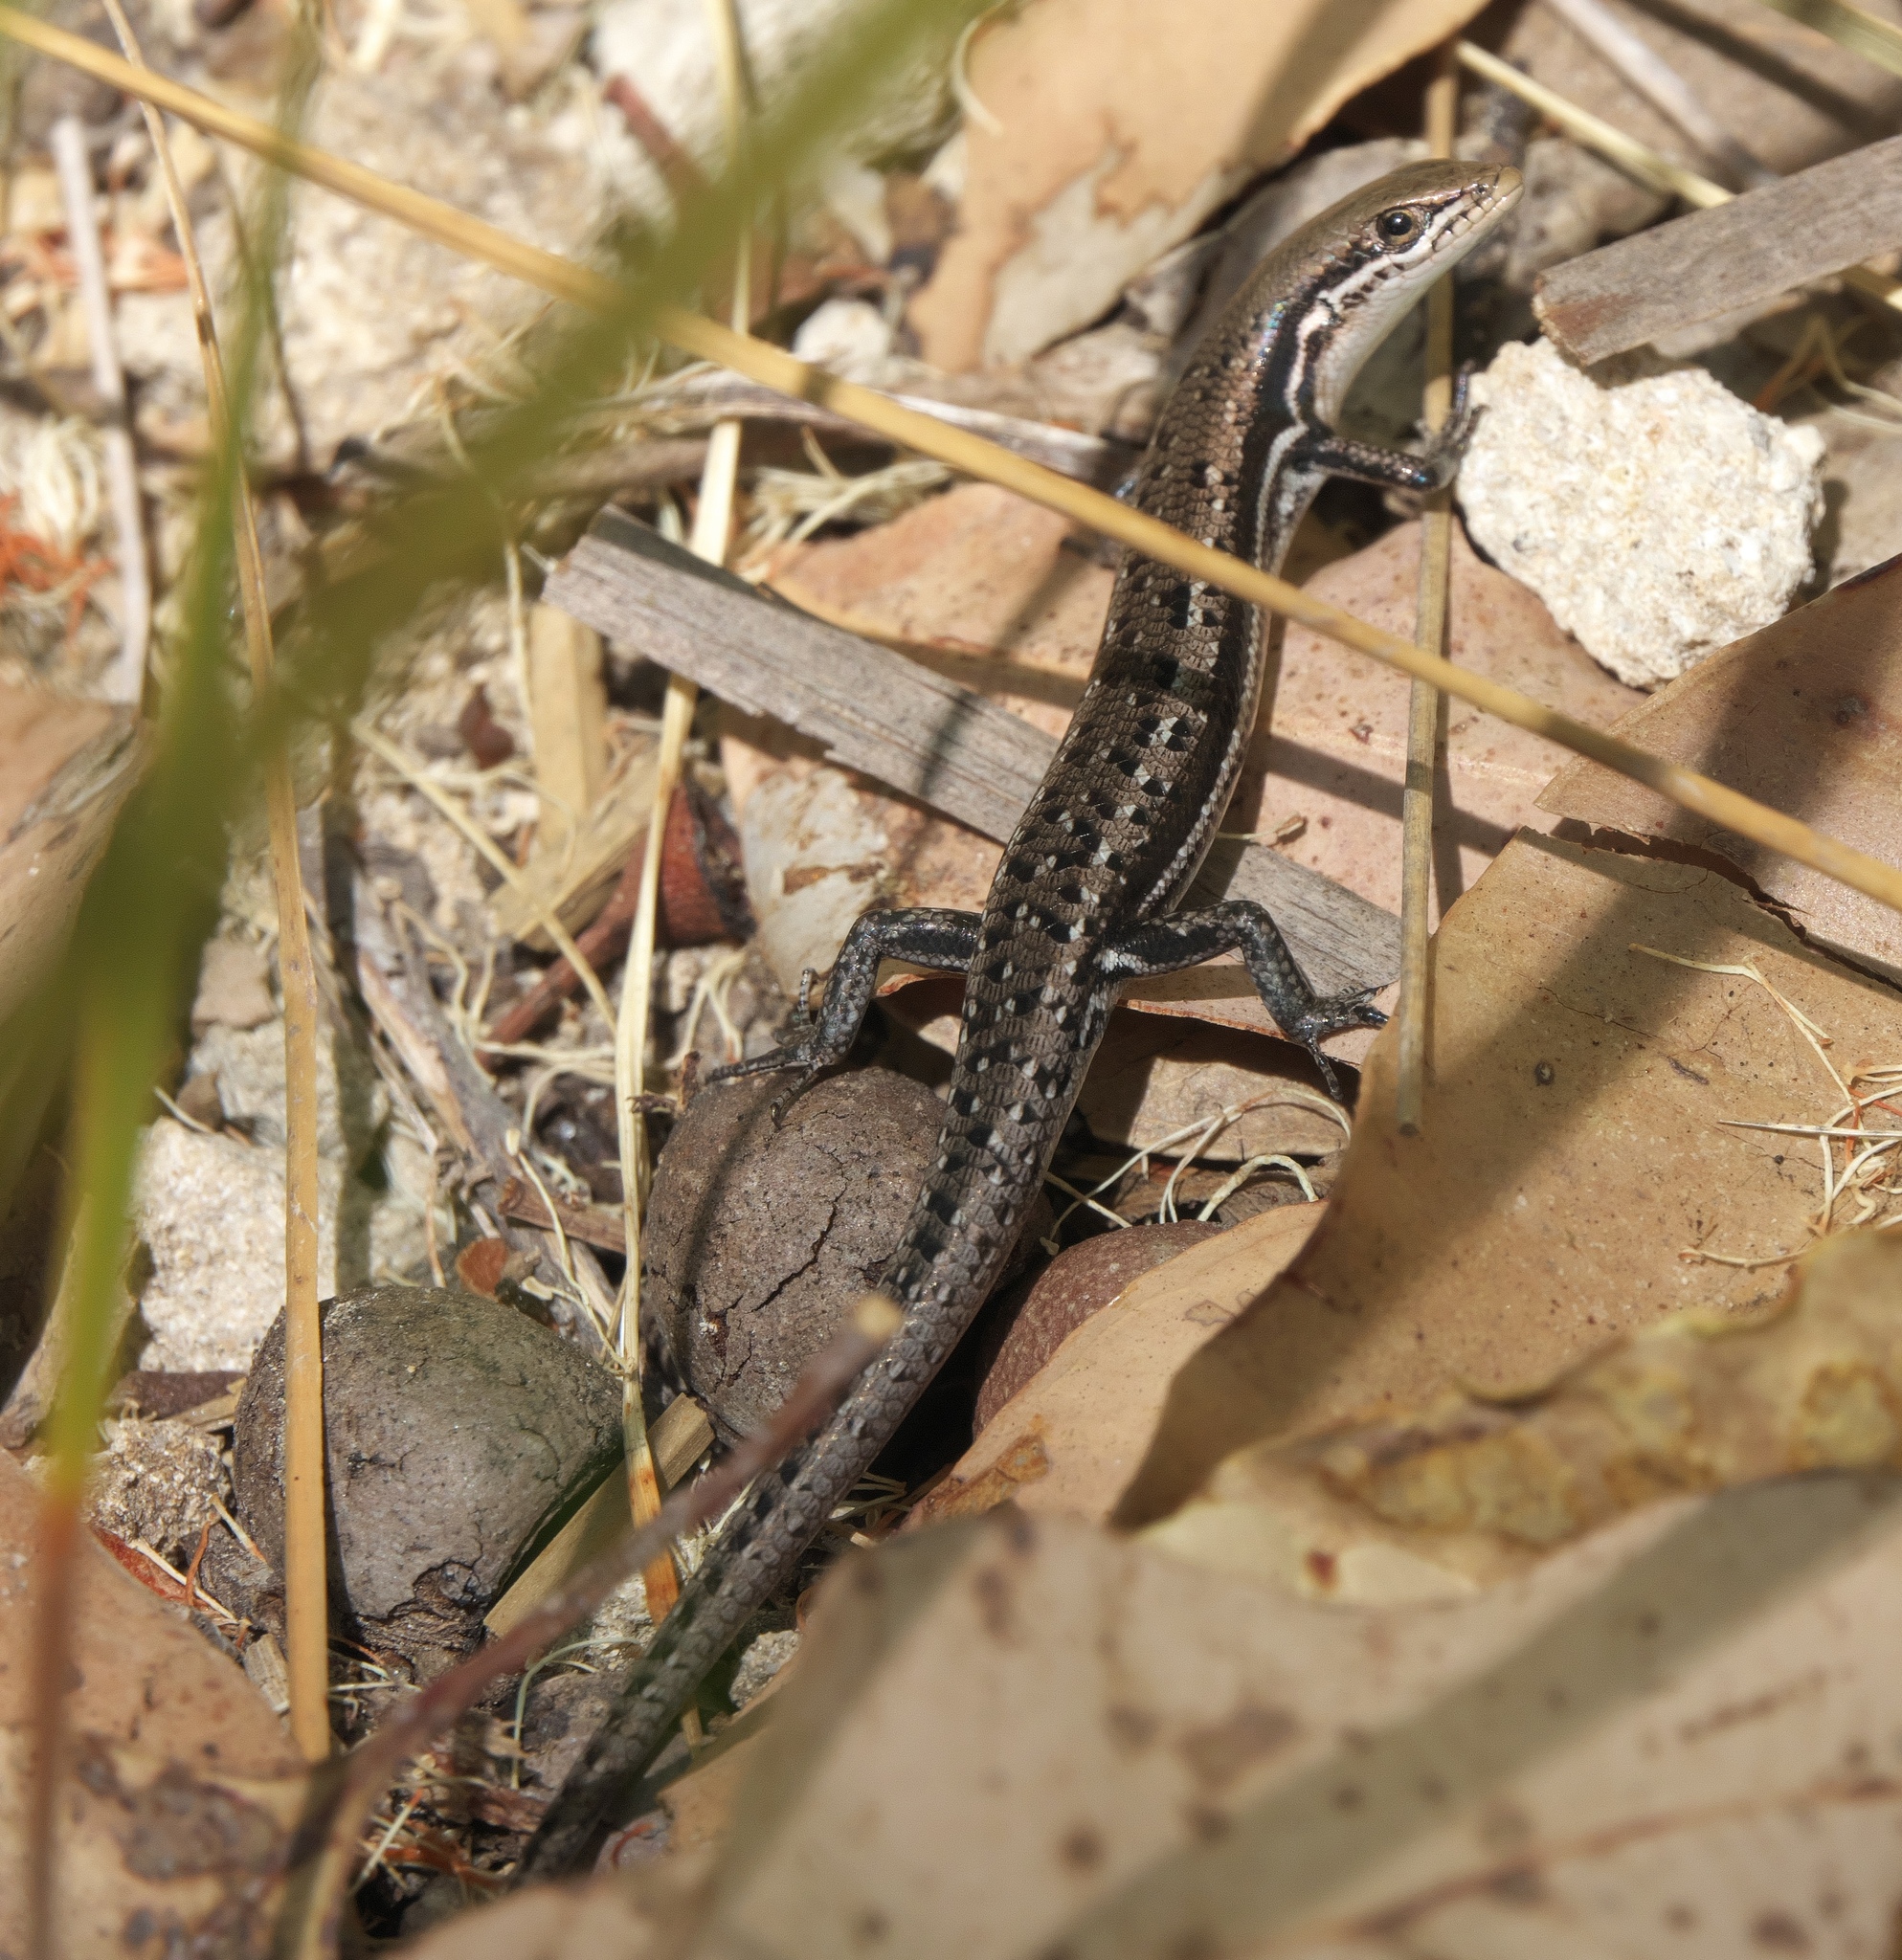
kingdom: Animalia
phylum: Chordata
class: Squamata
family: Scincidae
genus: Morethia
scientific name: Morethia lineoocellata
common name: West coast morethia skink
